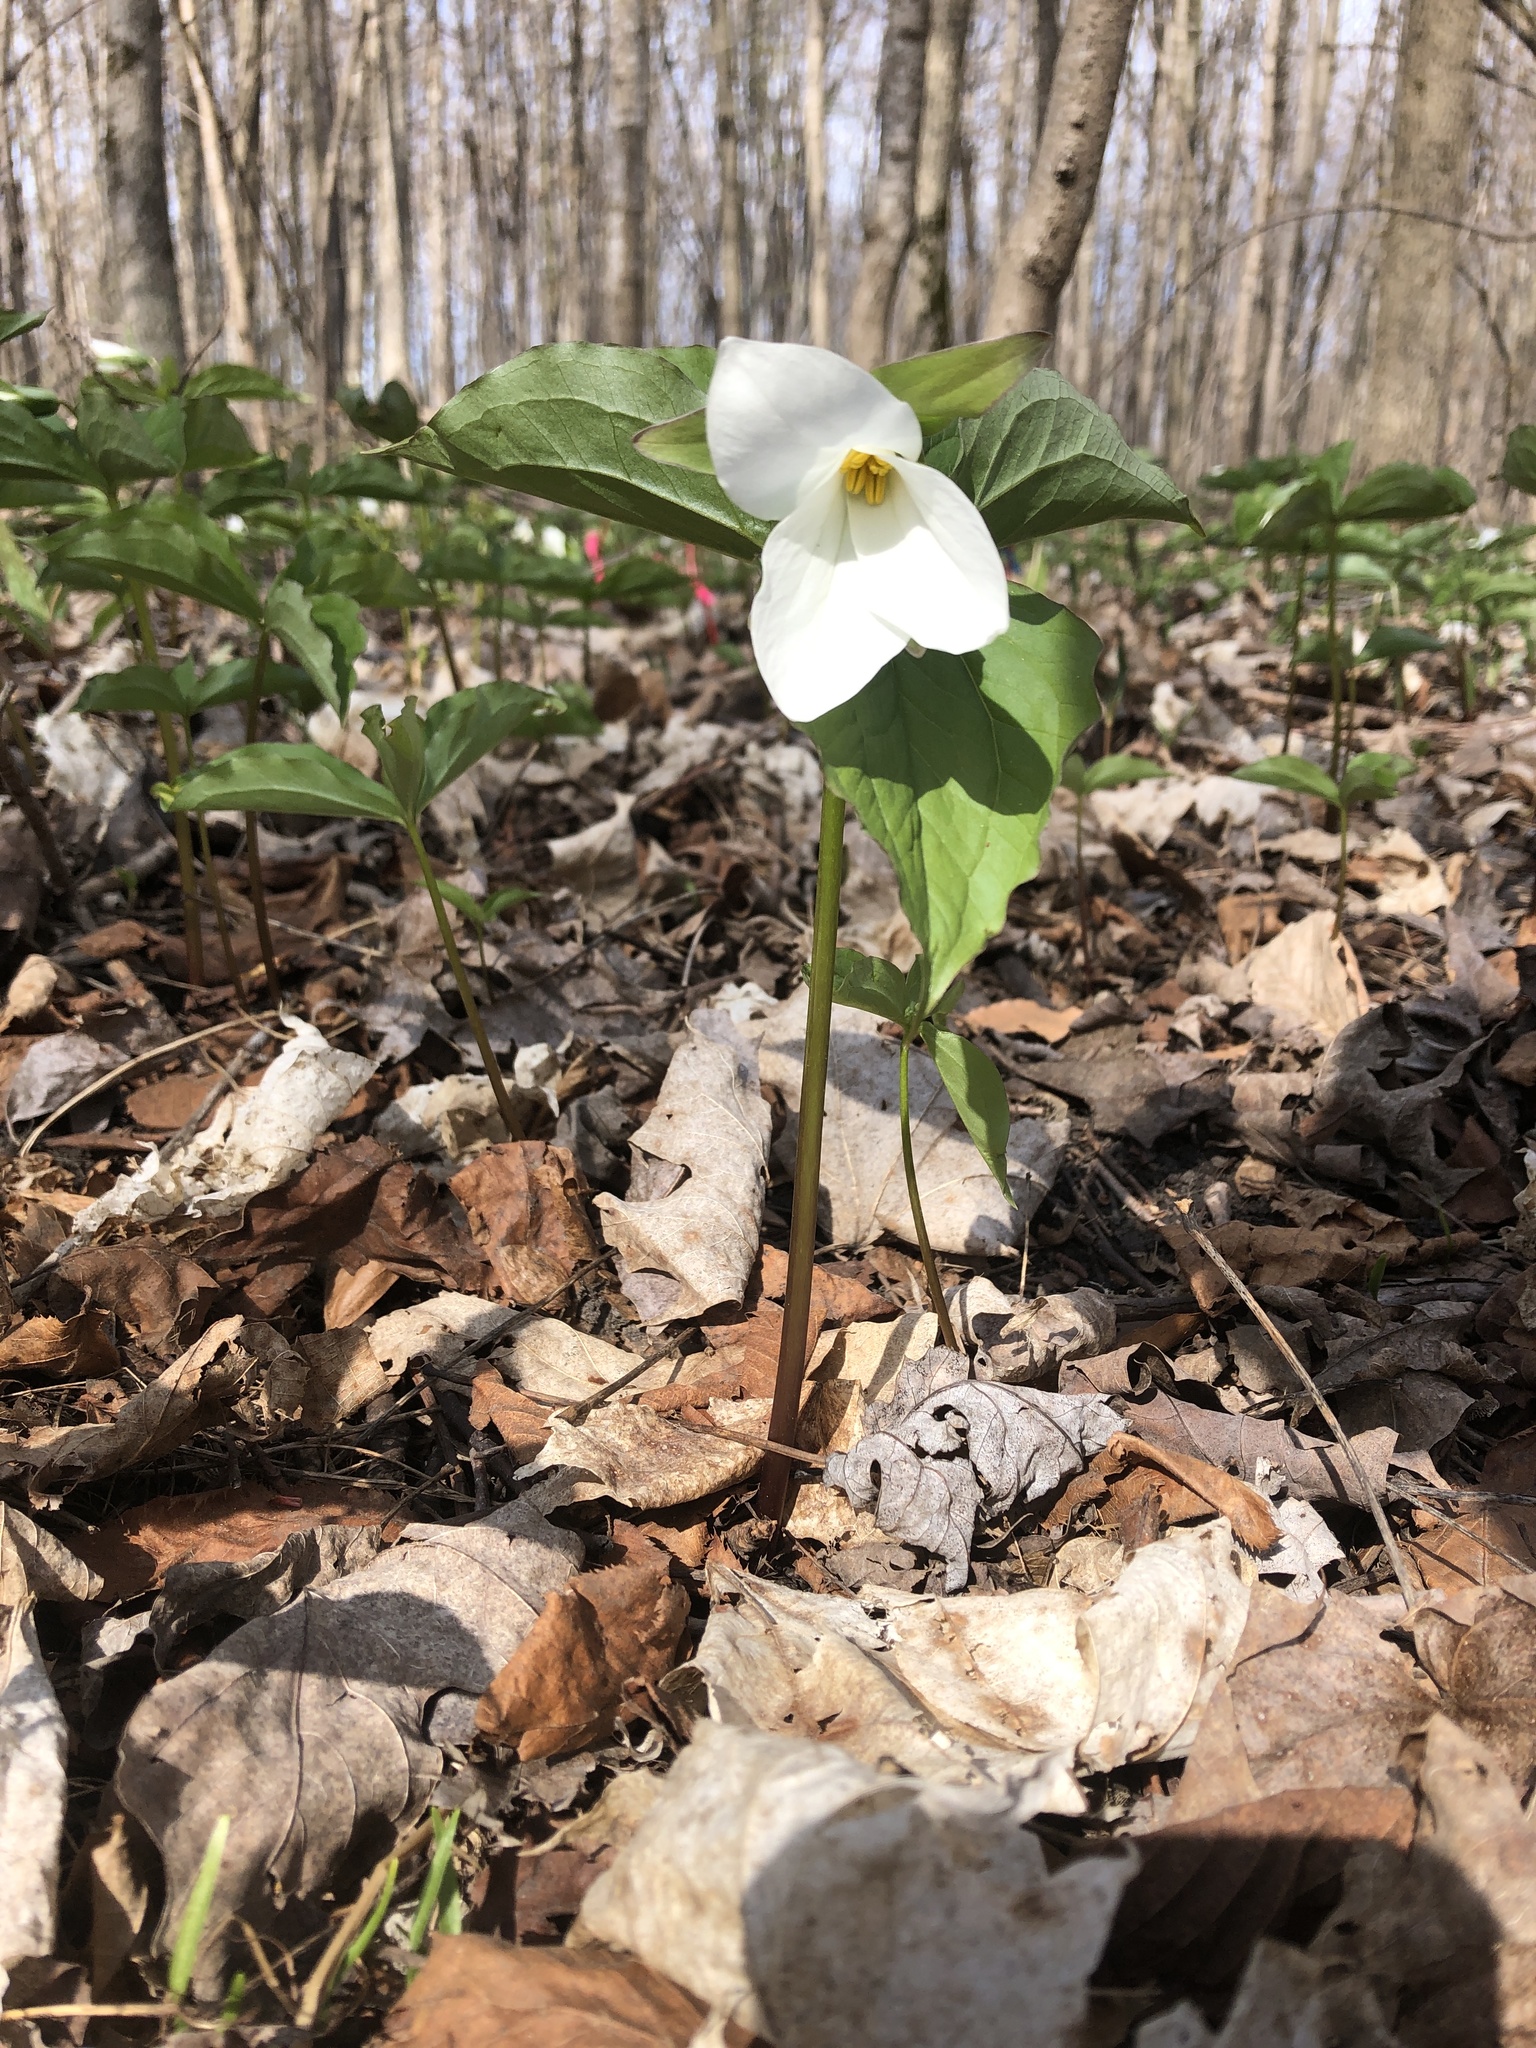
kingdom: Plantae
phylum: Tracheophyta
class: Liliopsida
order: Liliales
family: Melanthiaceae
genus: Trillium
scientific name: Trillium grandiflorum
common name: Great white trillium
